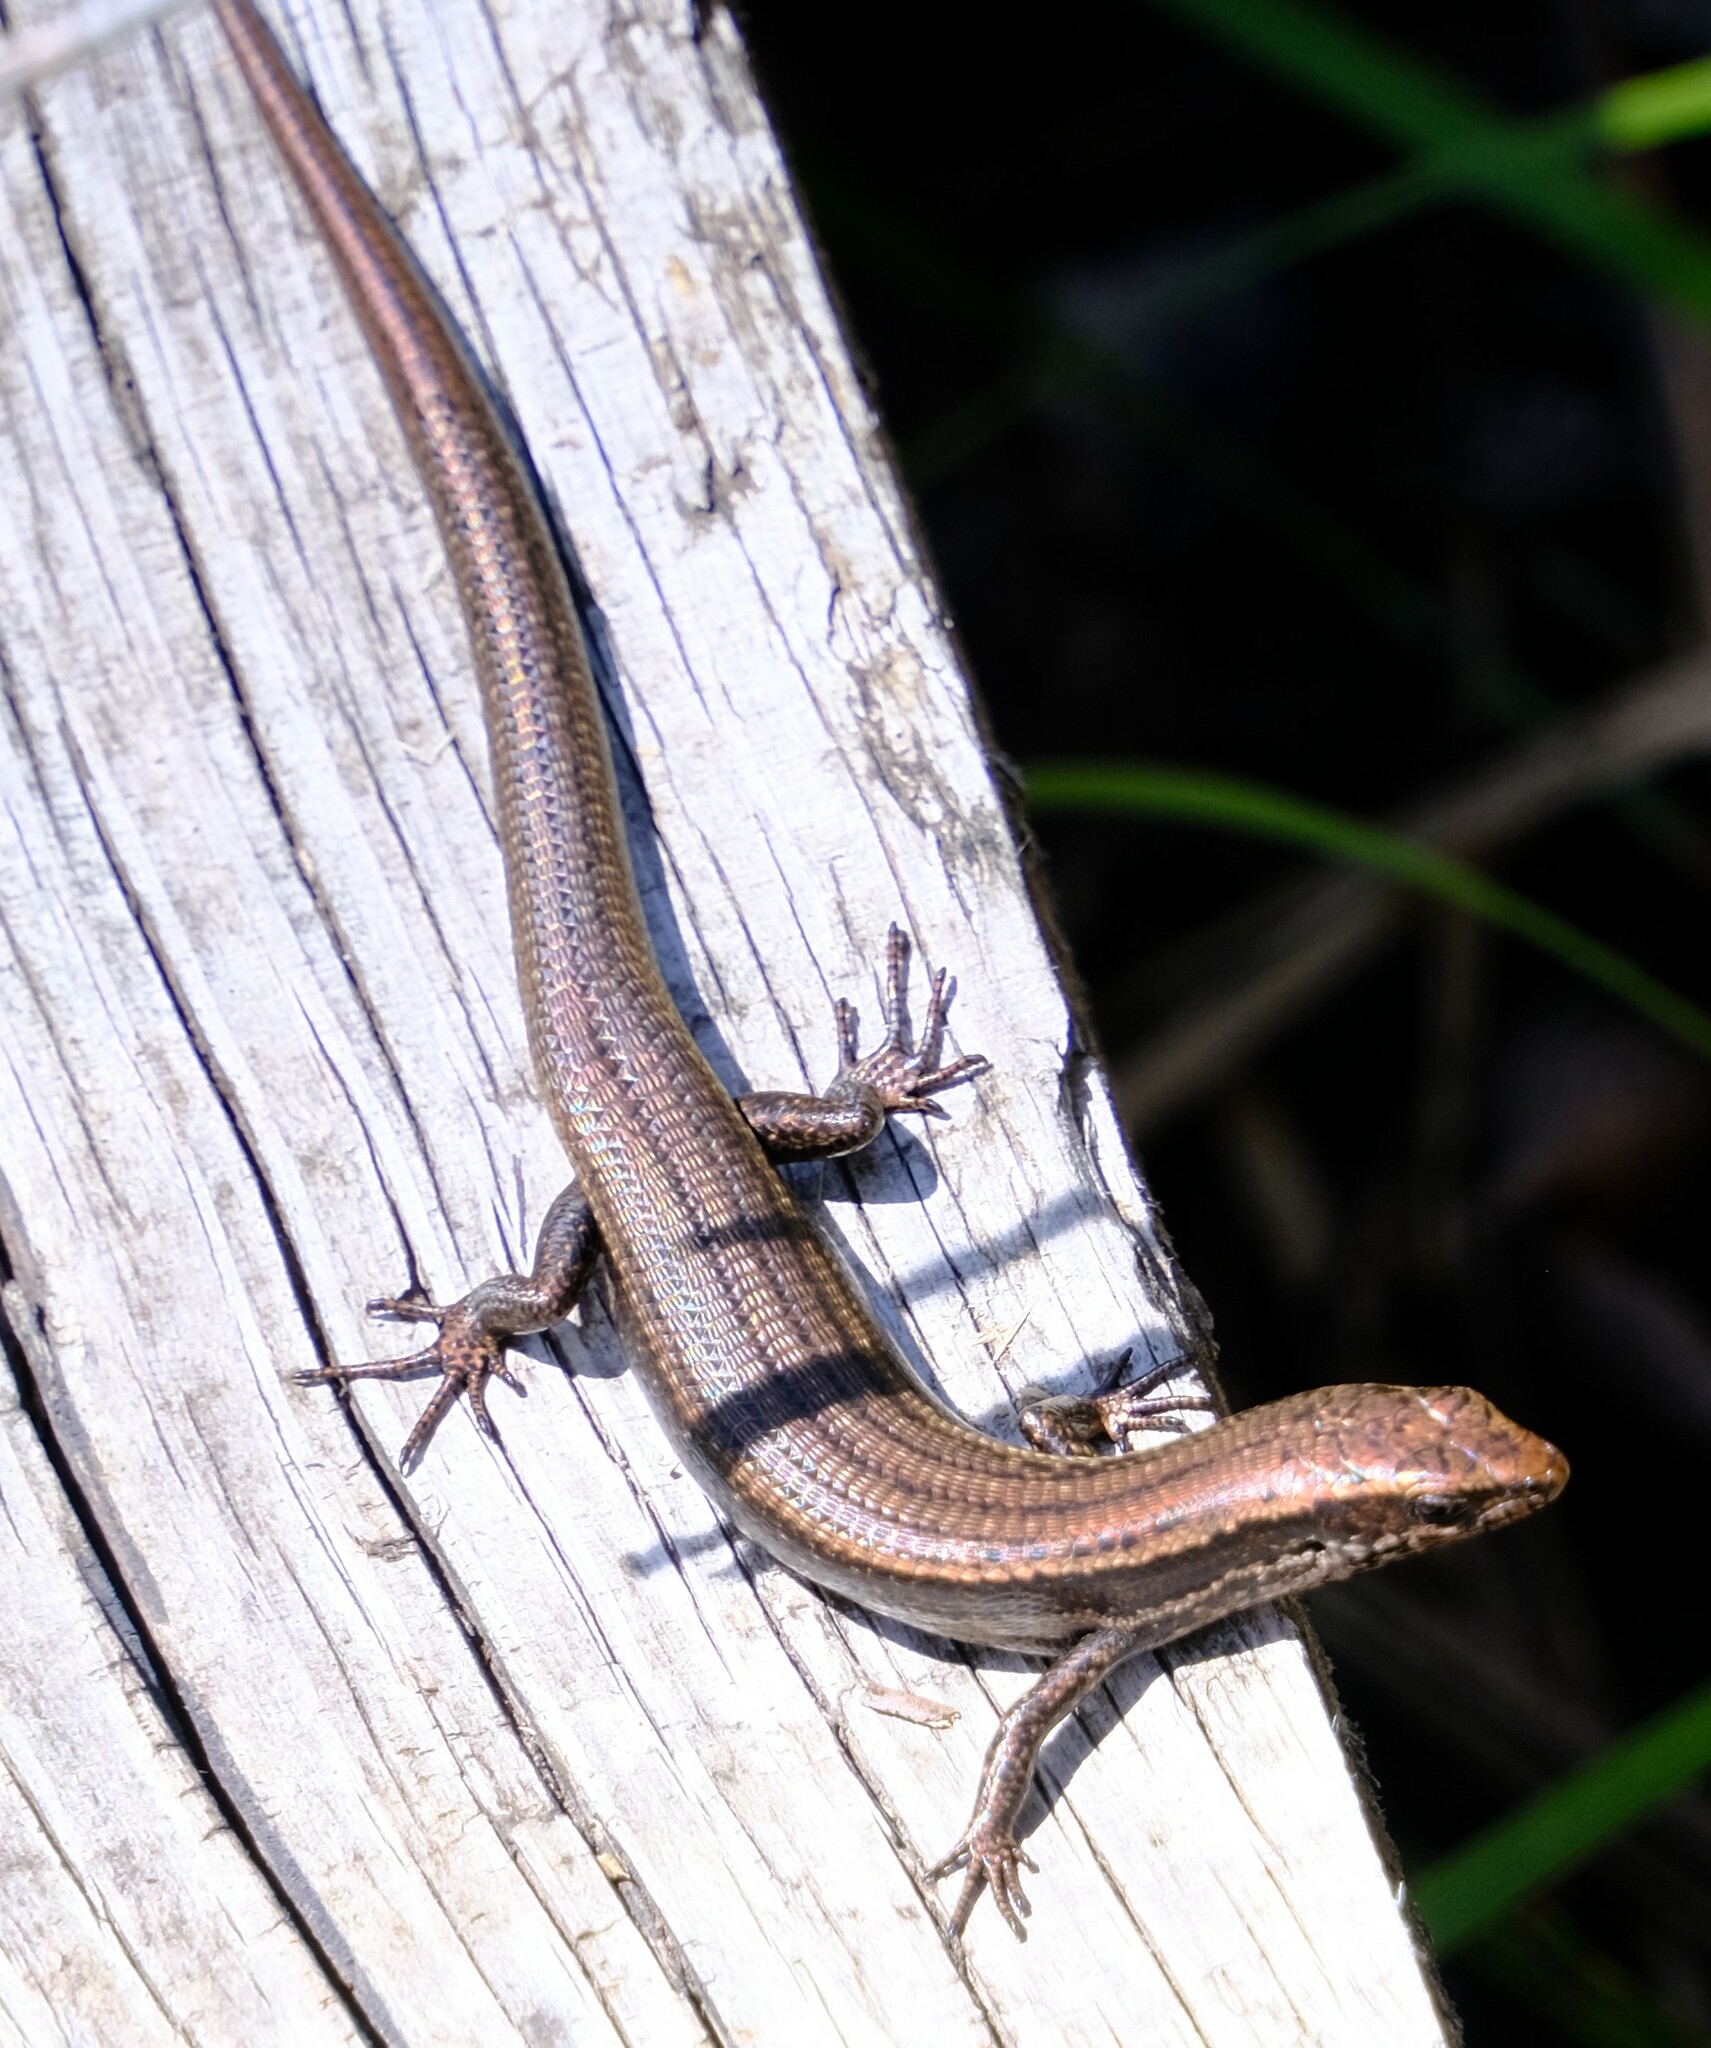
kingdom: Animalia
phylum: Chordata
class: Squamata
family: Scincidae
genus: Carinascincus
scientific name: Carinascincus metallicus
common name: Metallic cool-skink
